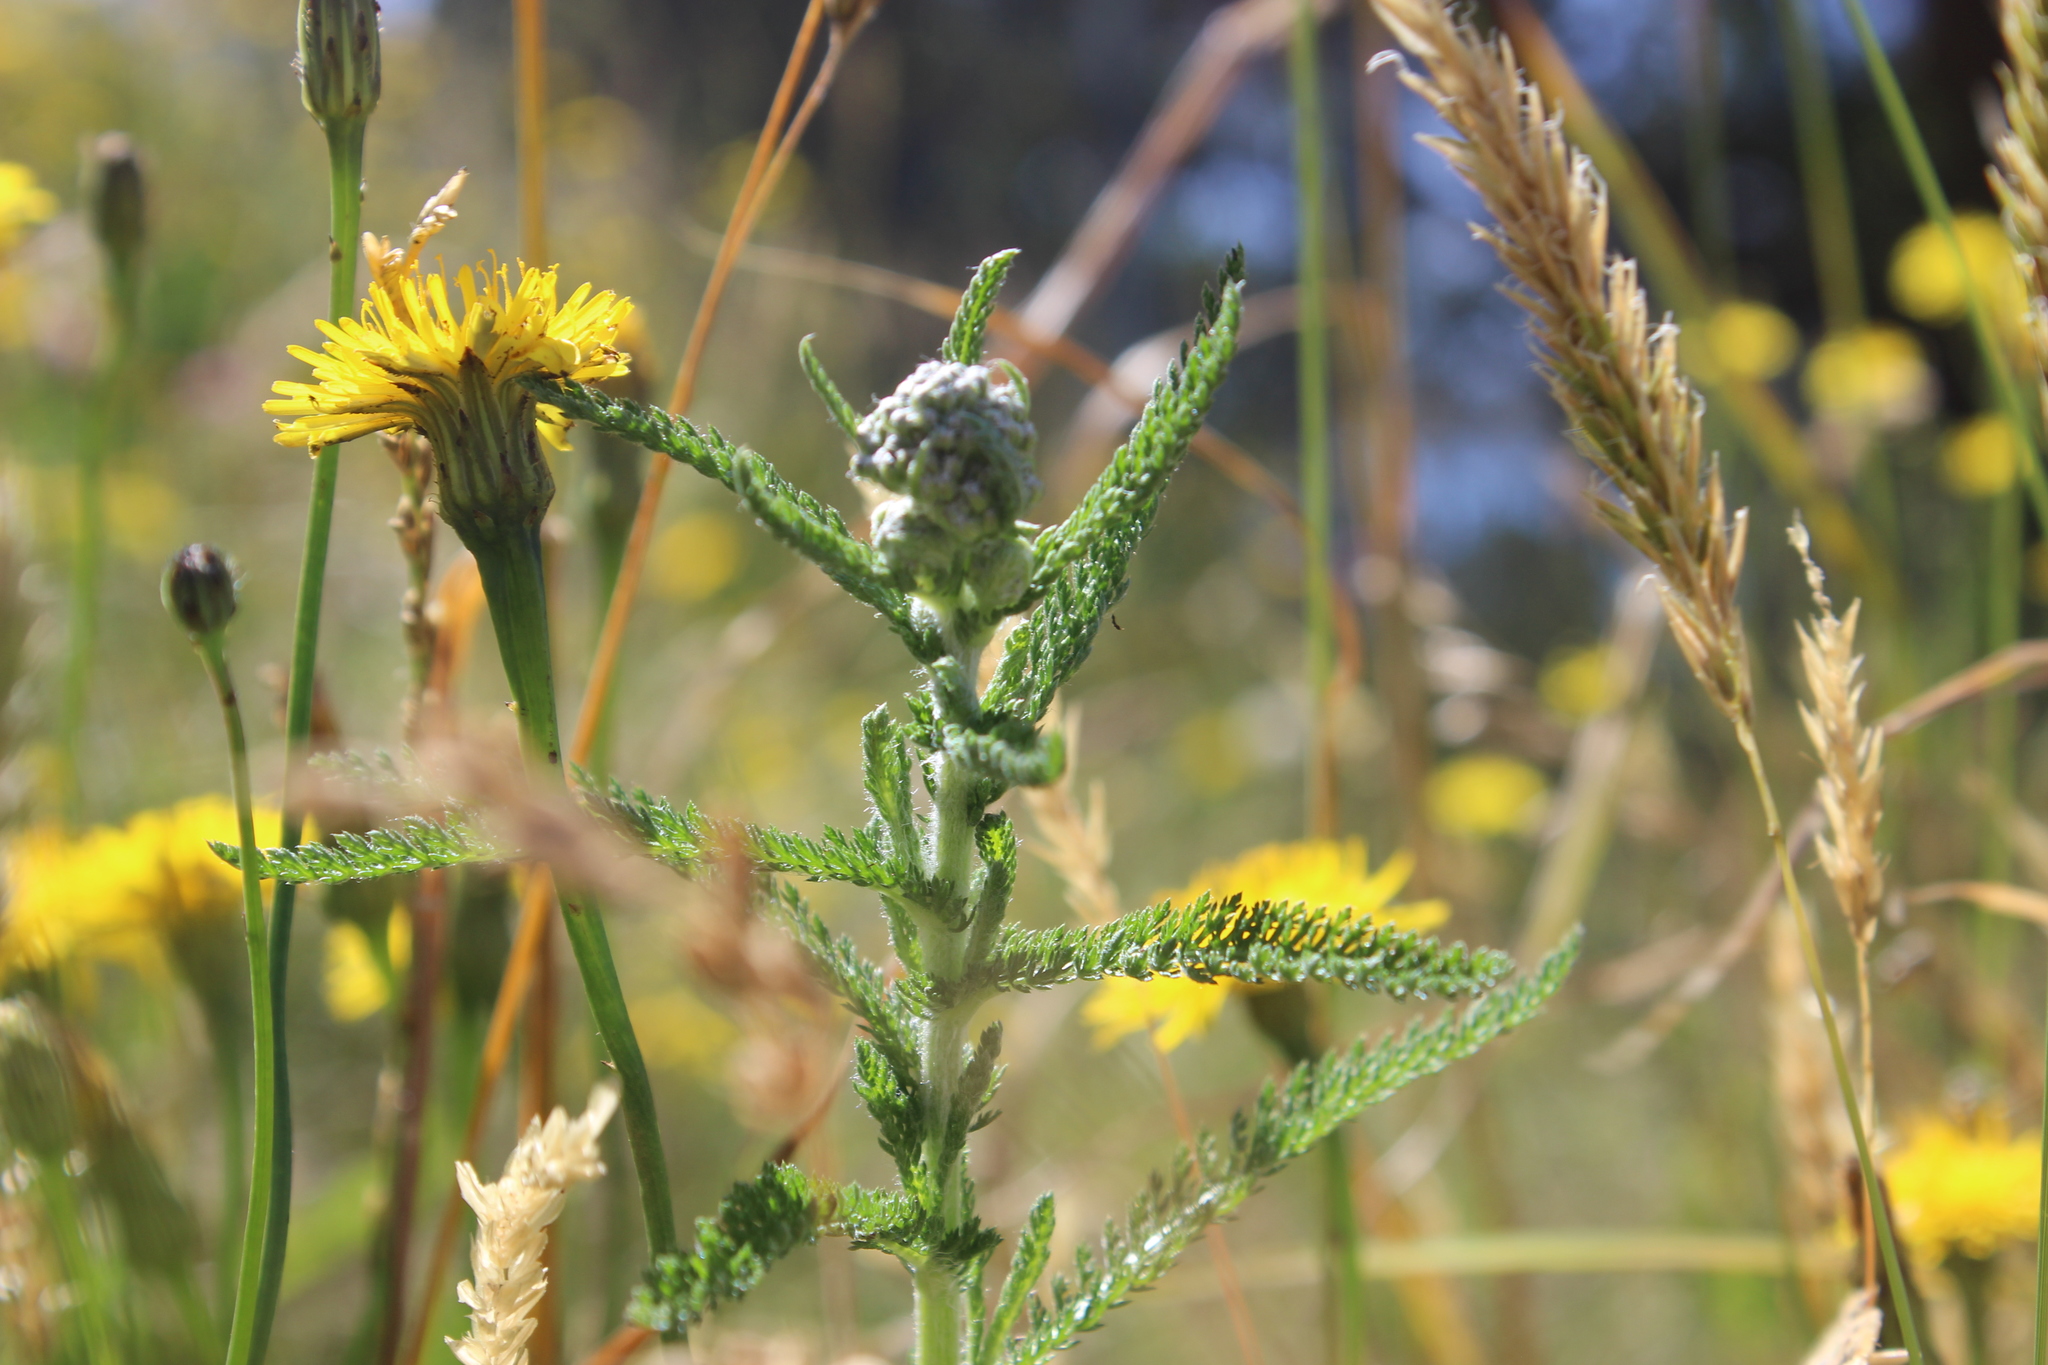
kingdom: Plantae
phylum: Tracheophyta
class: Magnoliopsida
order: Asterales
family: Asteraceae
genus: Achillea
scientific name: Achillea millefolium
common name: Yarrow
